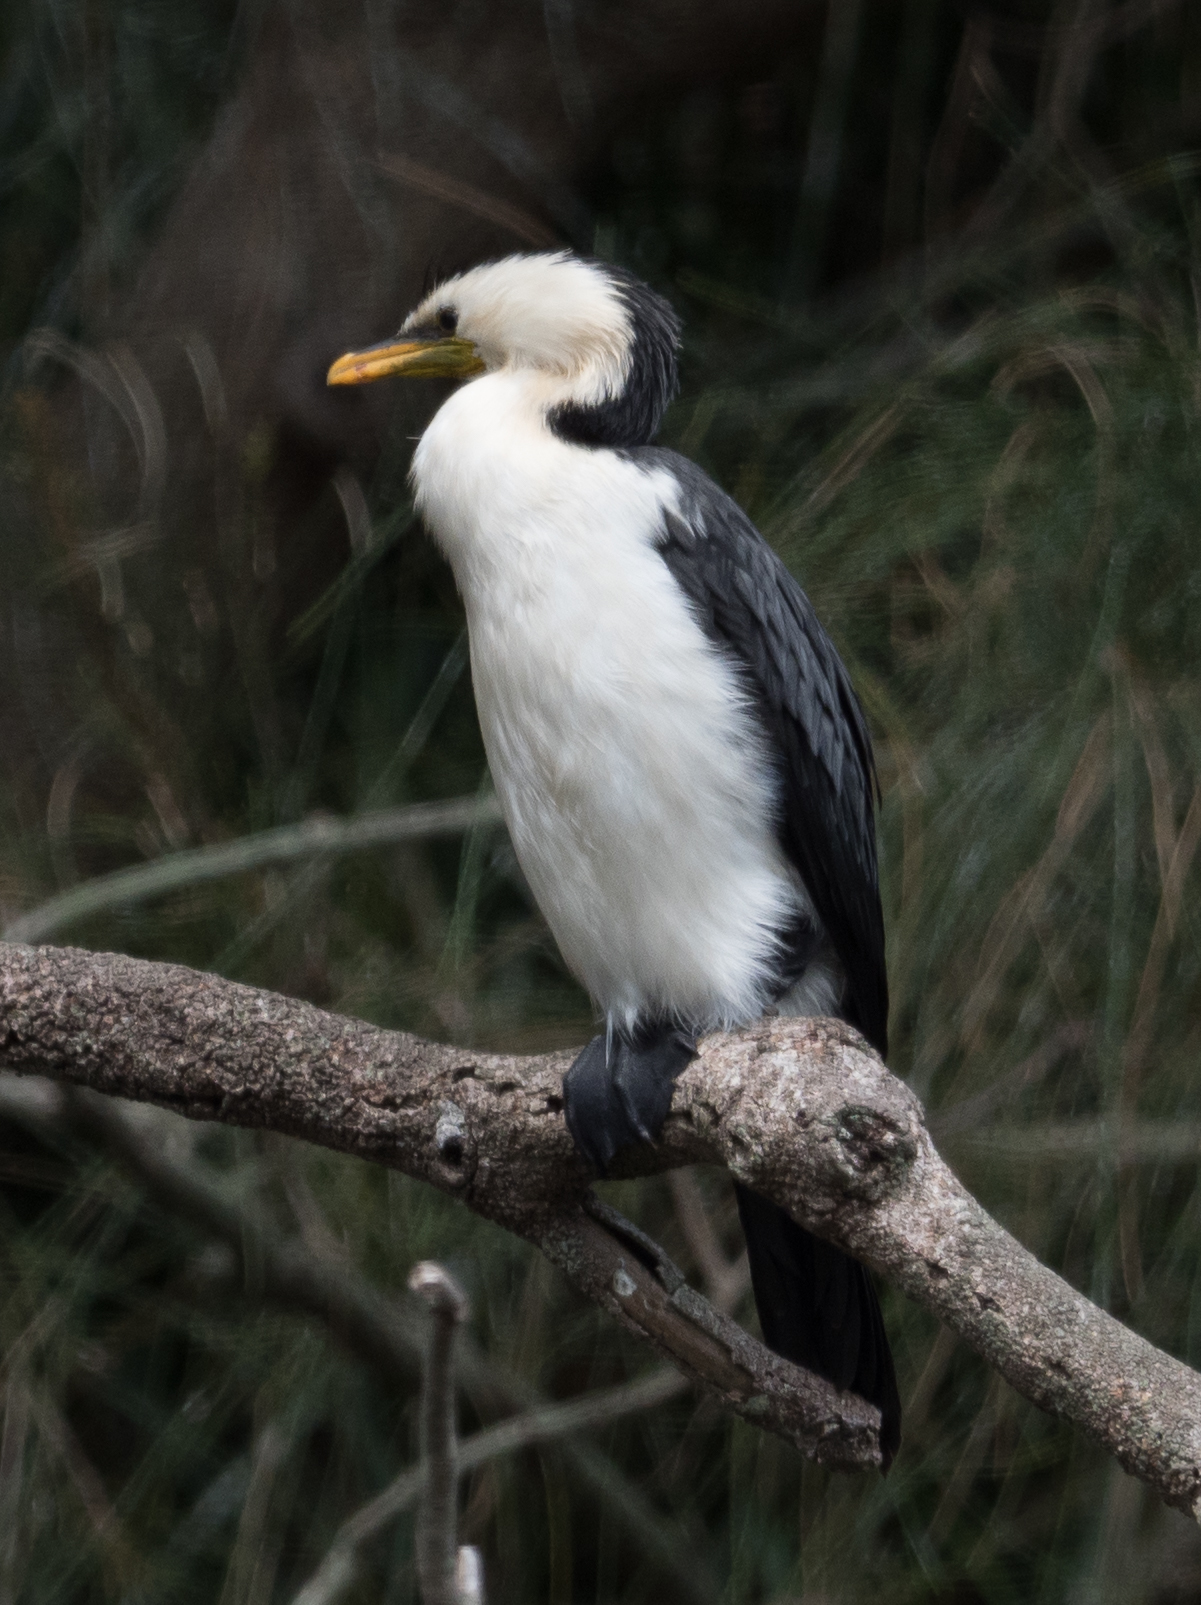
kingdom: Animalia
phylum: Chordata
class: Aves
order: Suliformes
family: Phalacrocoracidae
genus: Microcarbo
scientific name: Microcarbo melanoleucos
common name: Little pied cormorant
